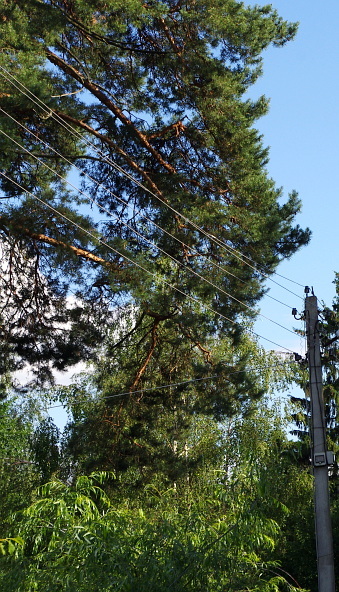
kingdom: Plantae
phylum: Tracheophyta
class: Pinopsida
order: Pinales
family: Pinaceae
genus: Pinus
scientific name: Pinus sylvestris
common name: Scots pine
